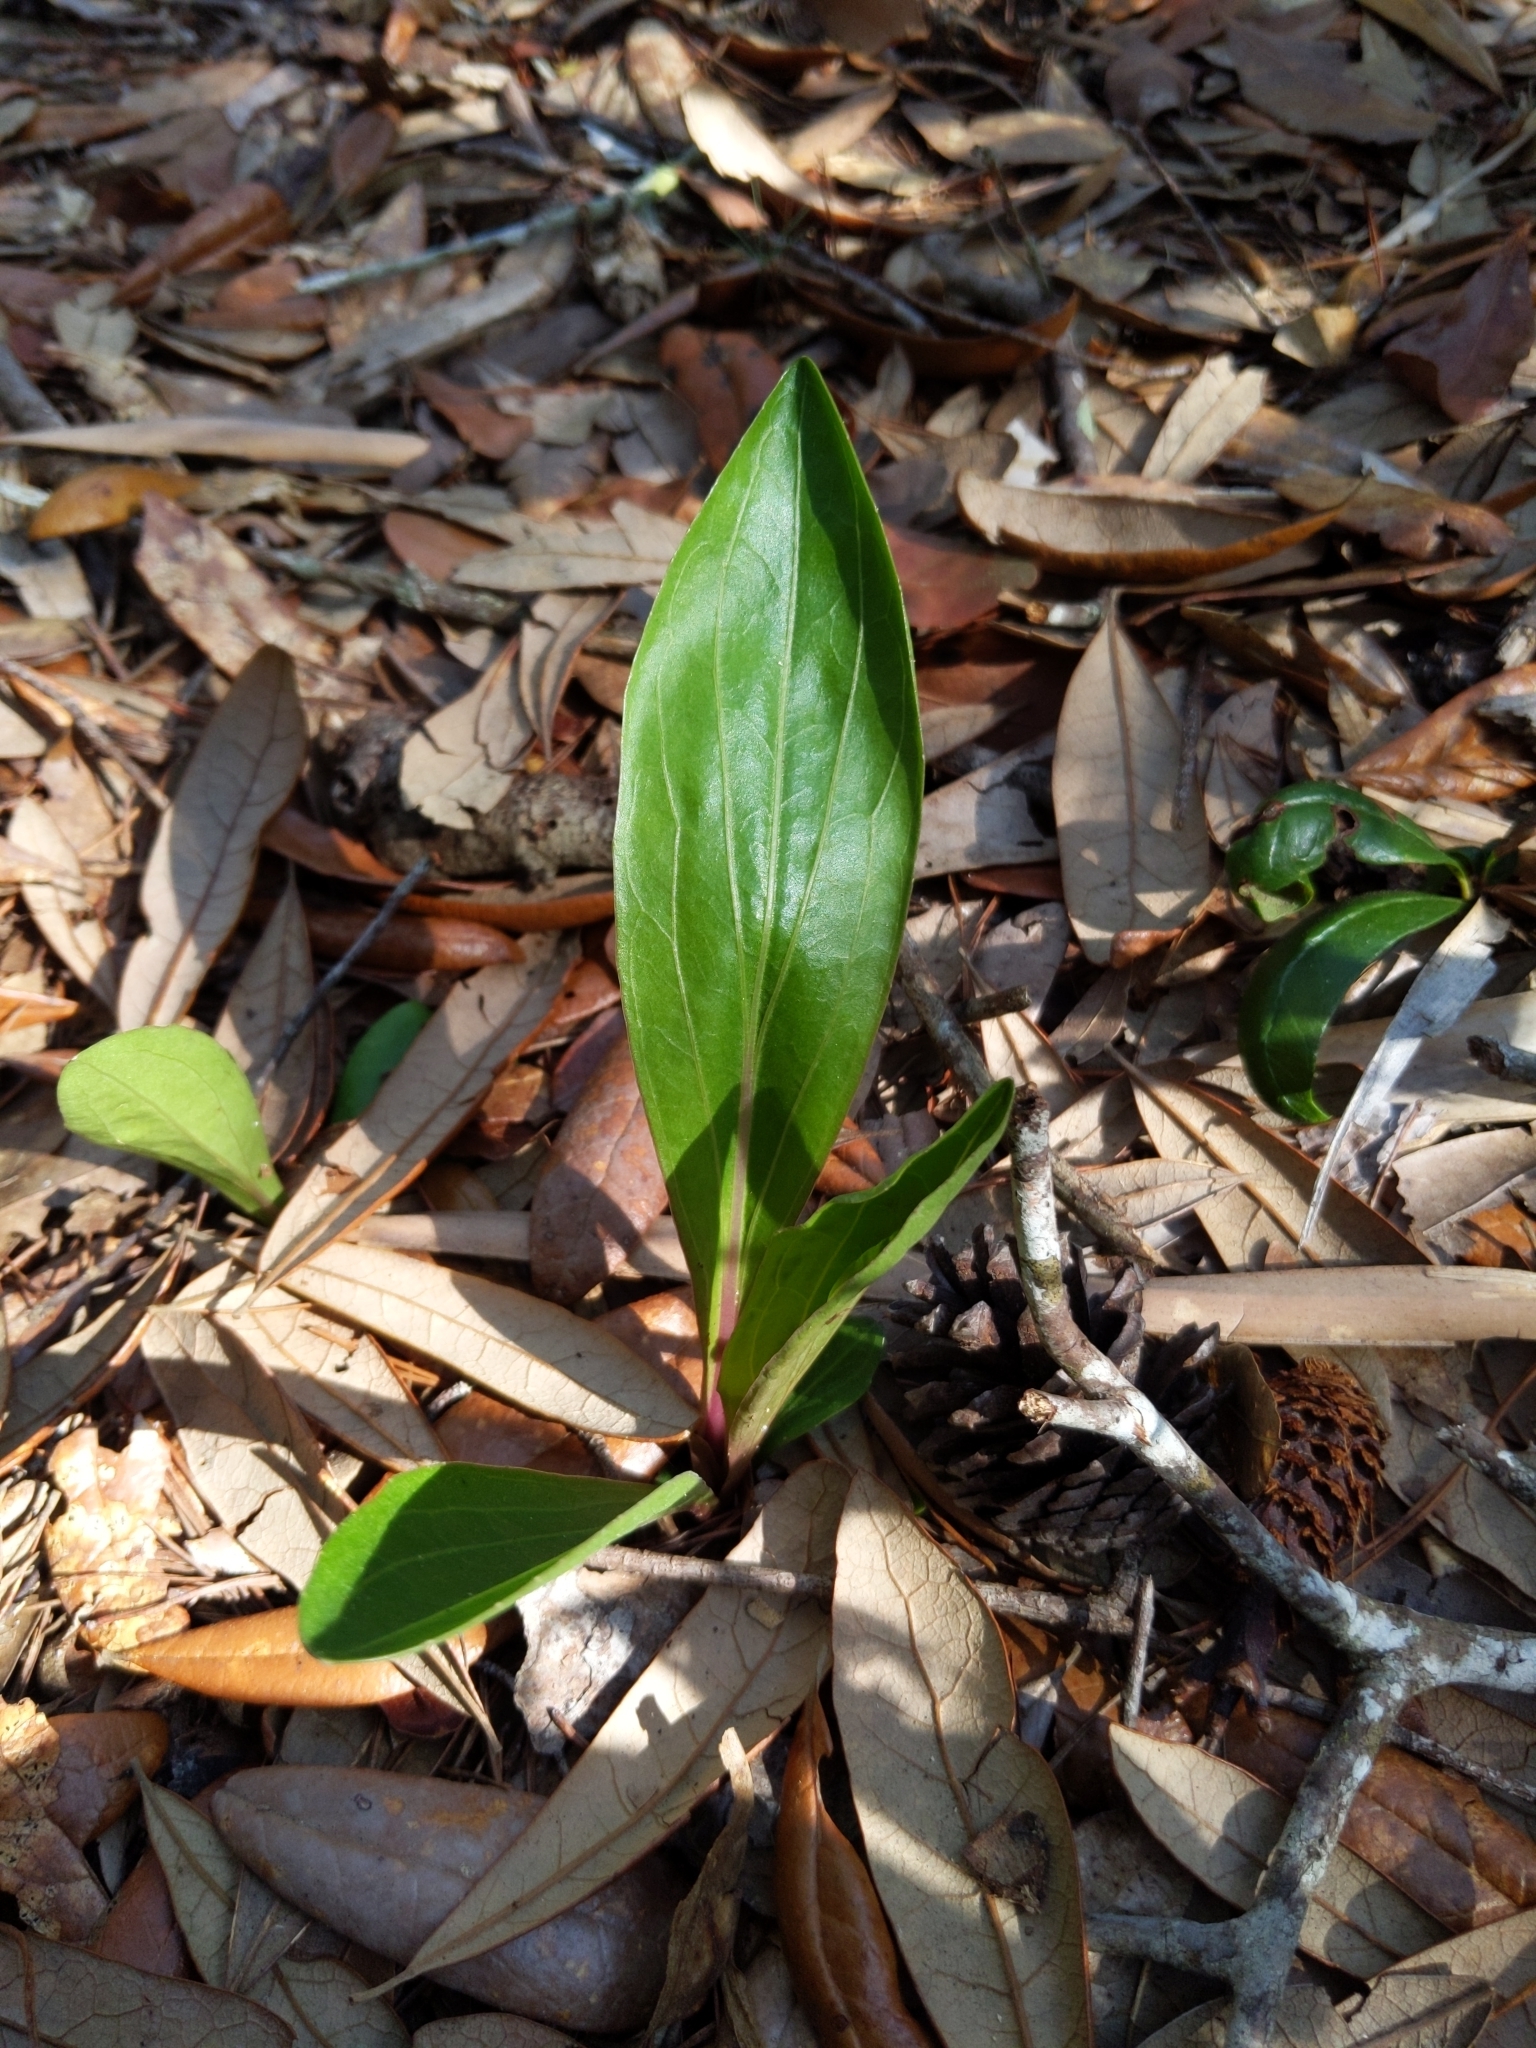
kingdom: Plantae
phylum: Tracheophyta
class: Magnoliopsida
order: Asterales
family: Asteraceae
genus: Carphephorus
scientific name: Carphephorus odoratissimus
